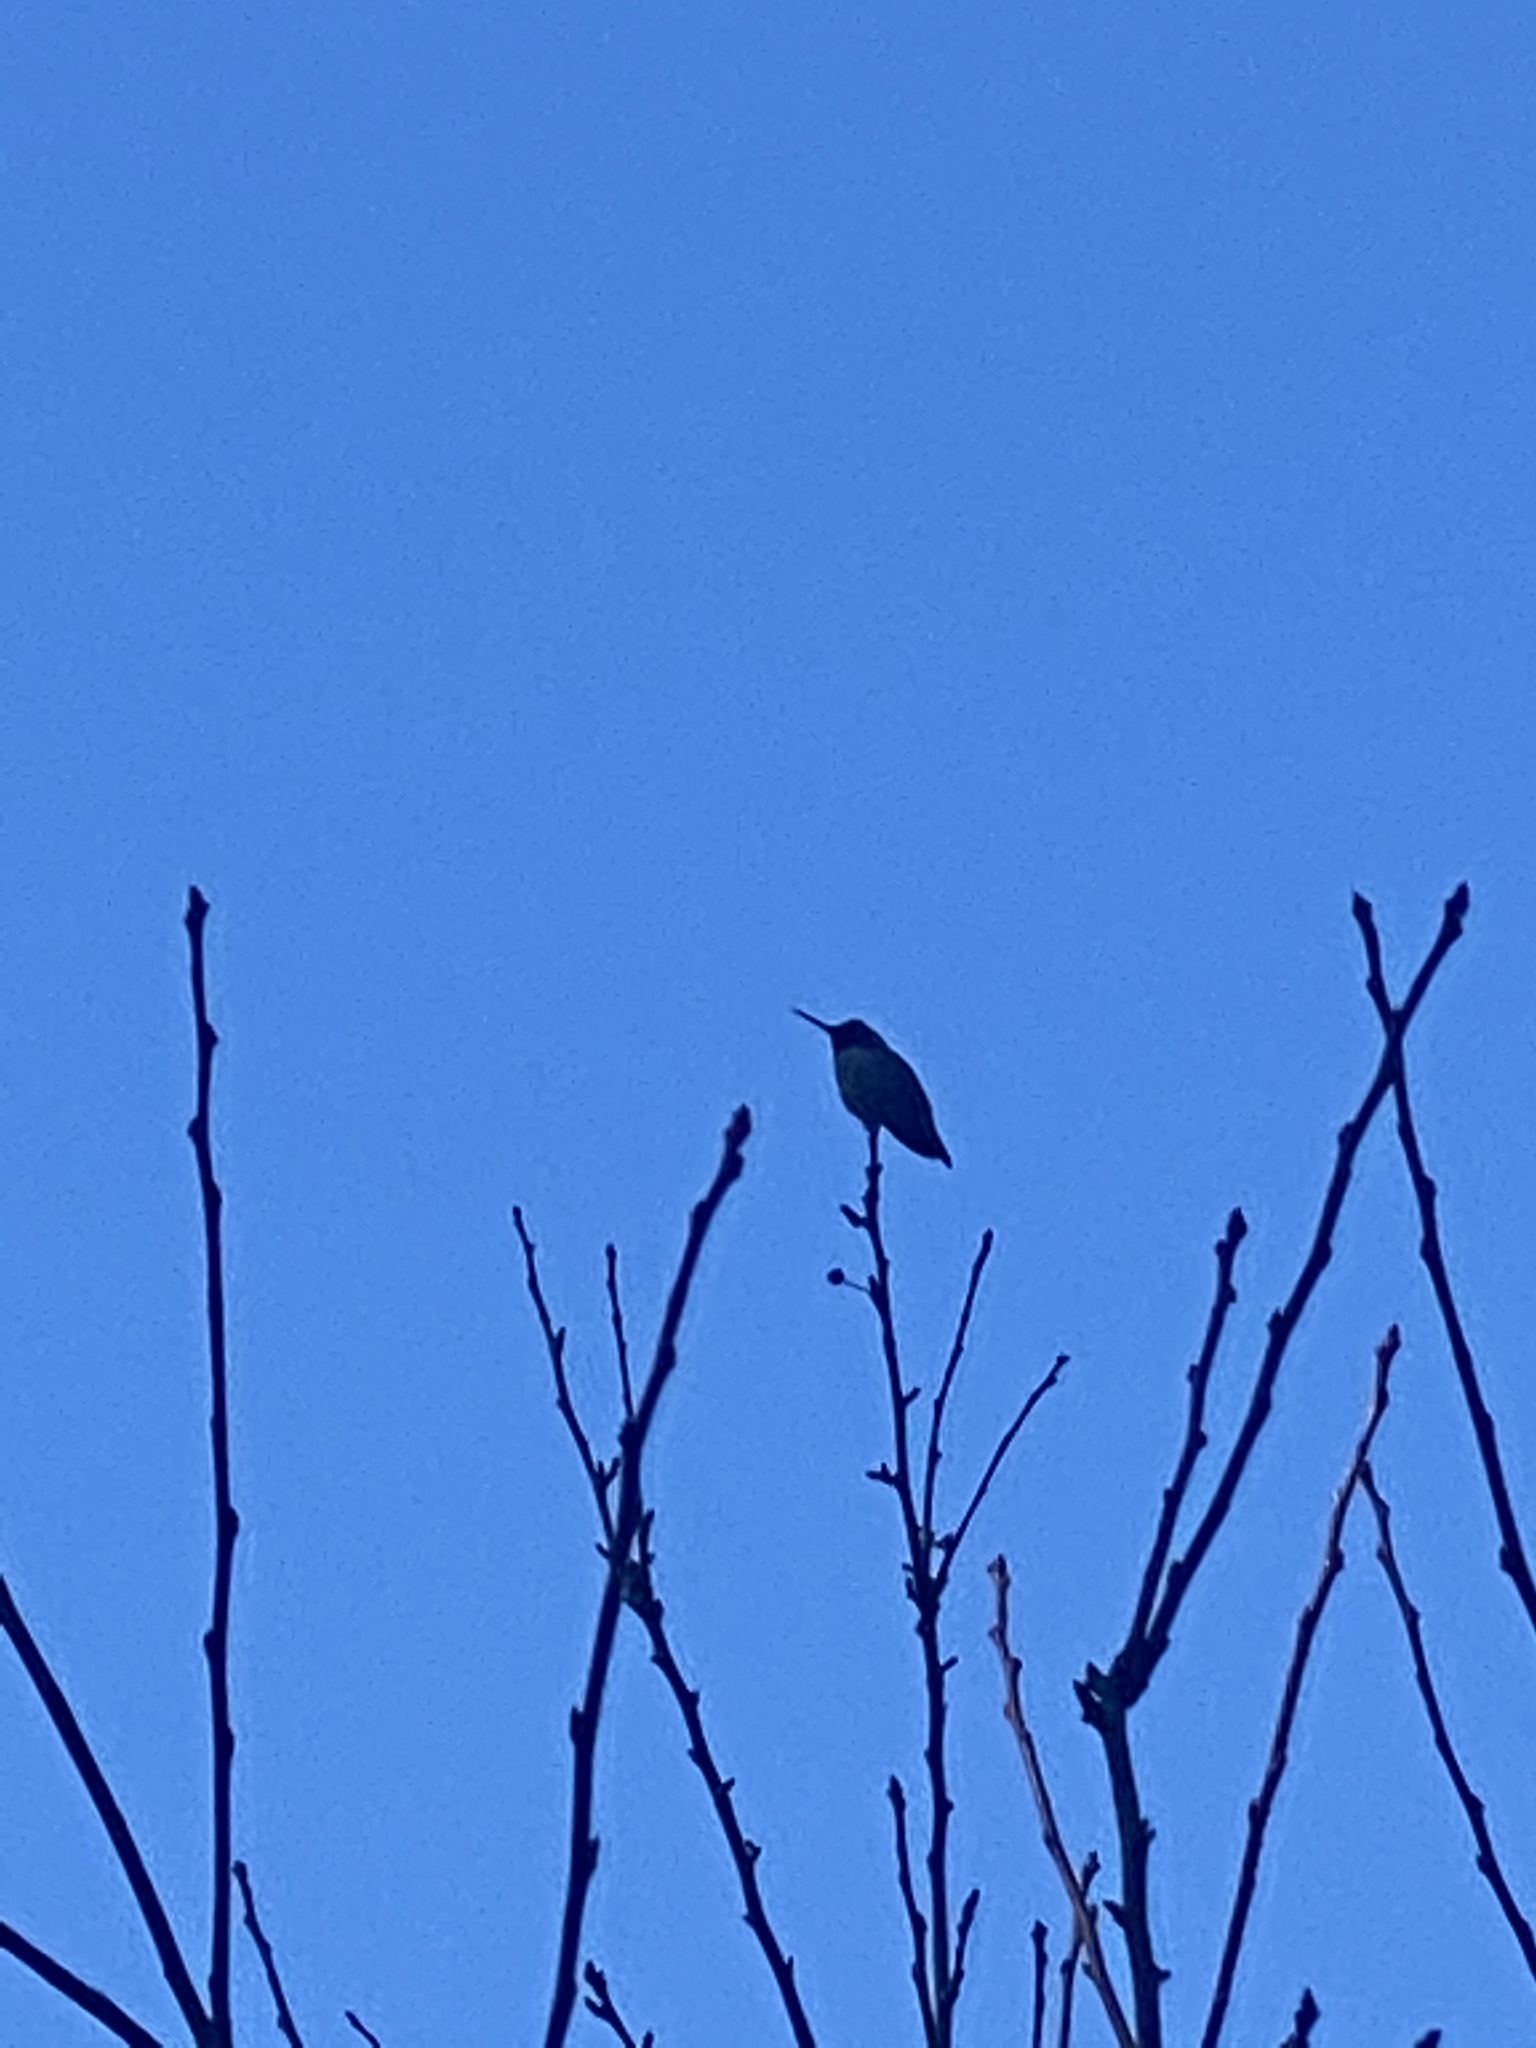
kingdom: Animalia
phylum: Chordata
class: Aves
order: Apodiformes
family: Trochilidae
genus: Calypte
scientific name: Calypte anna
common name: Anna's hummingbird
